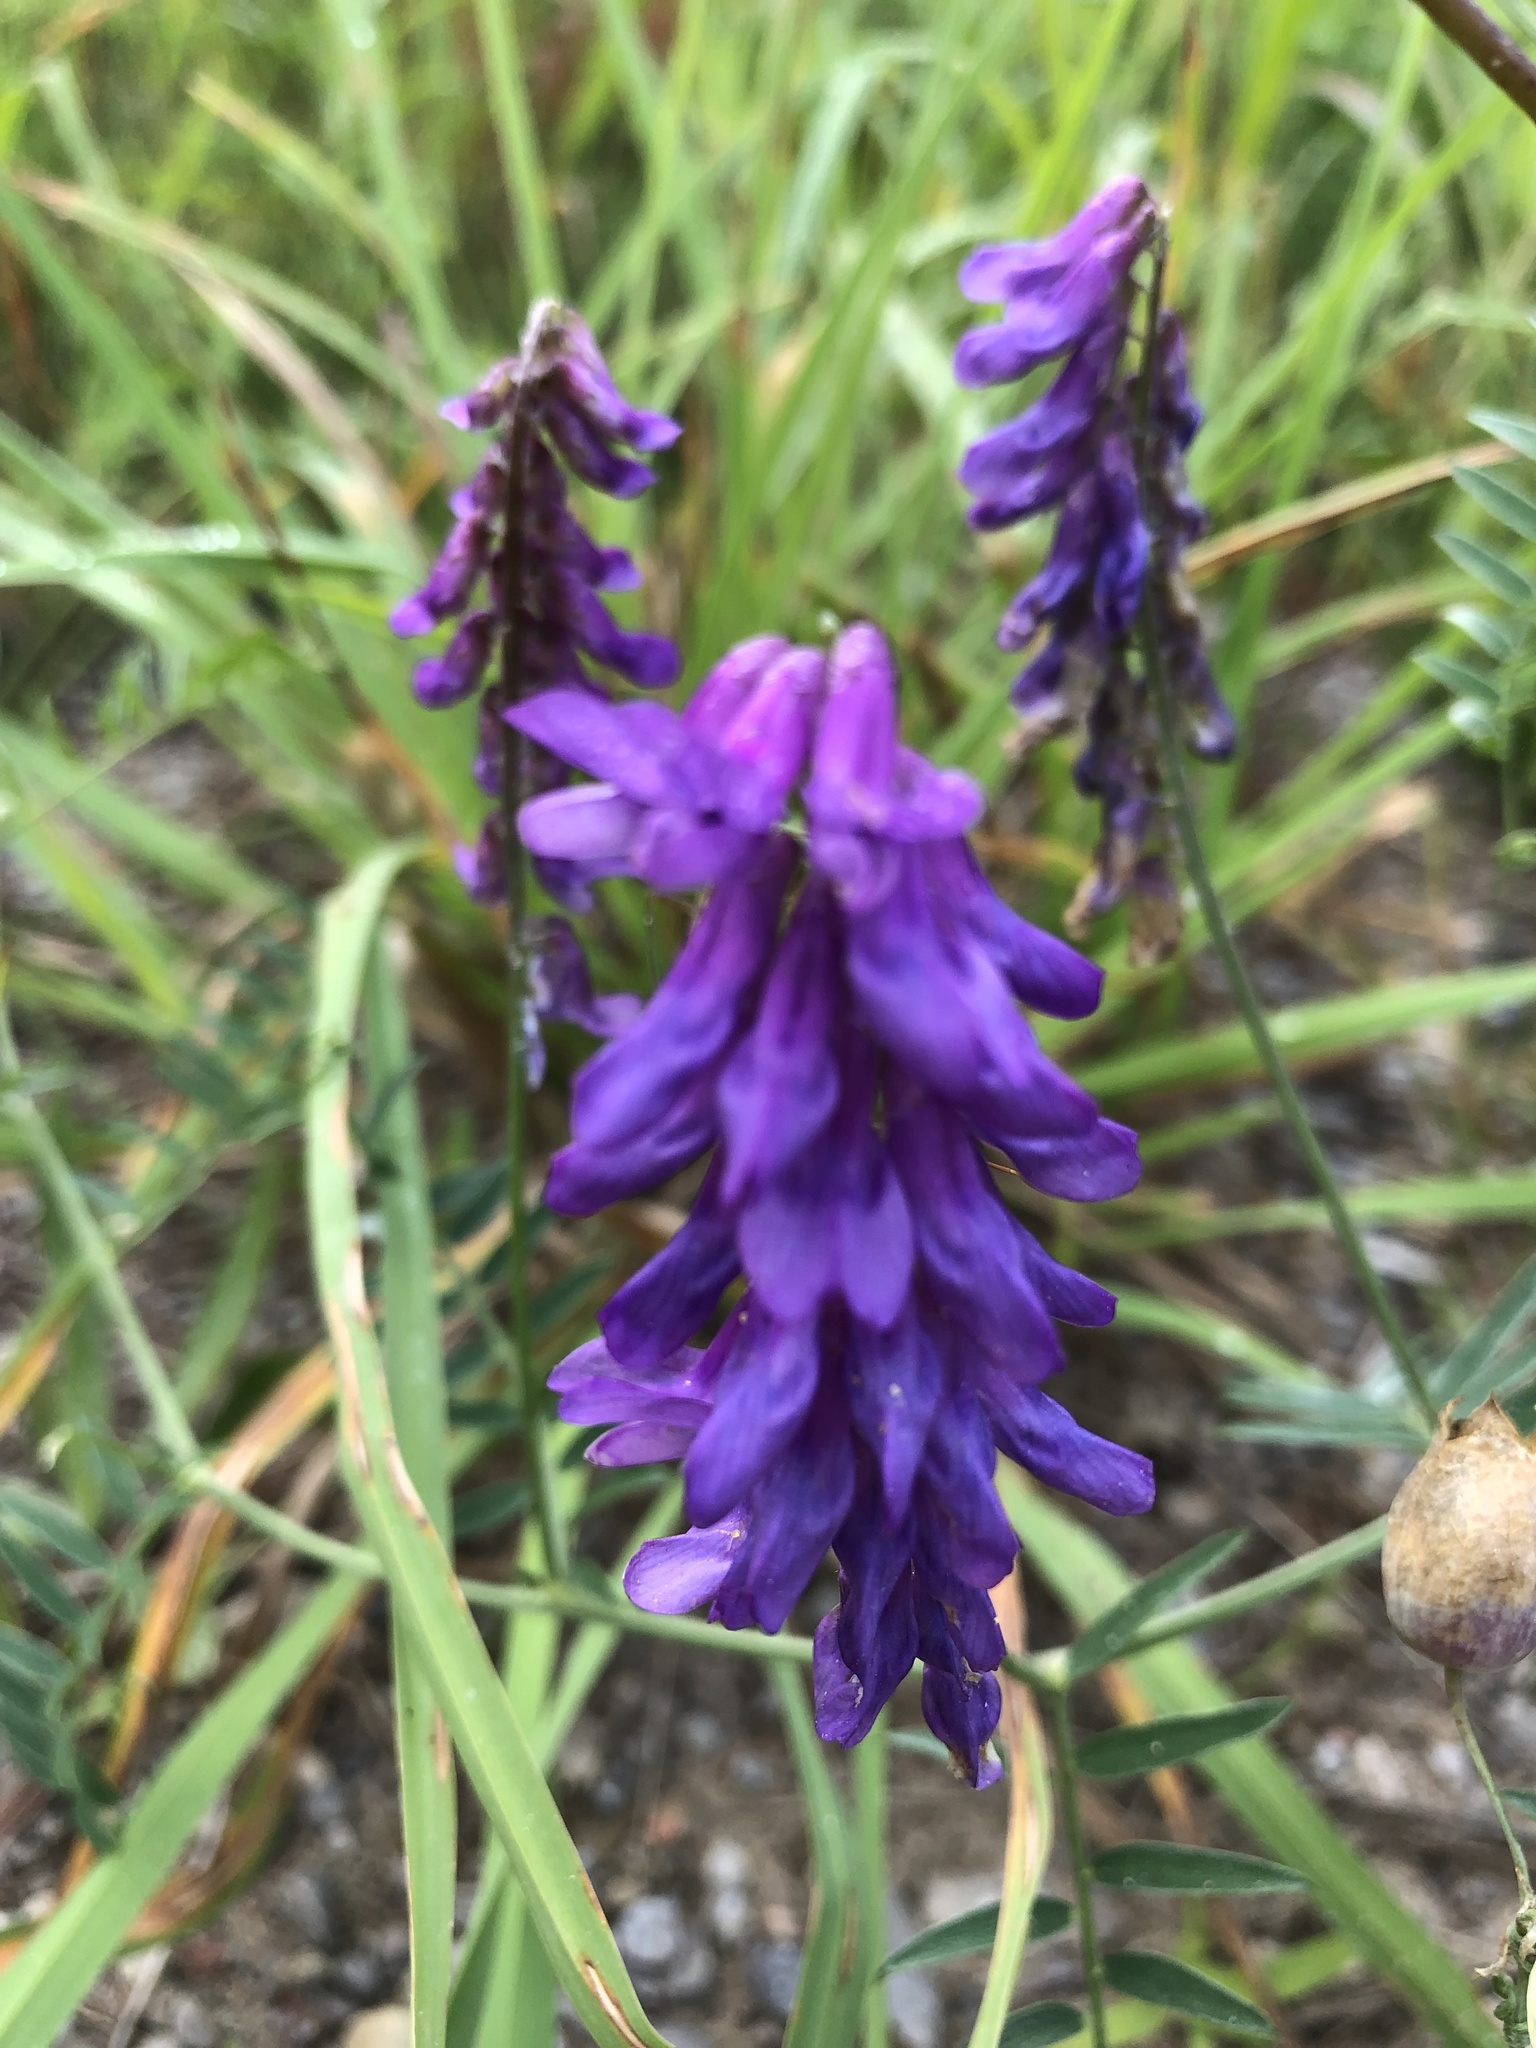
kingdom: Plantae
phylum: Tracheophyta
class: Magnoliopsida
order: Fabales
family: Fabaceae
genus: Vicia
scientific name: Vicia cracca
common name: Bird vetch
